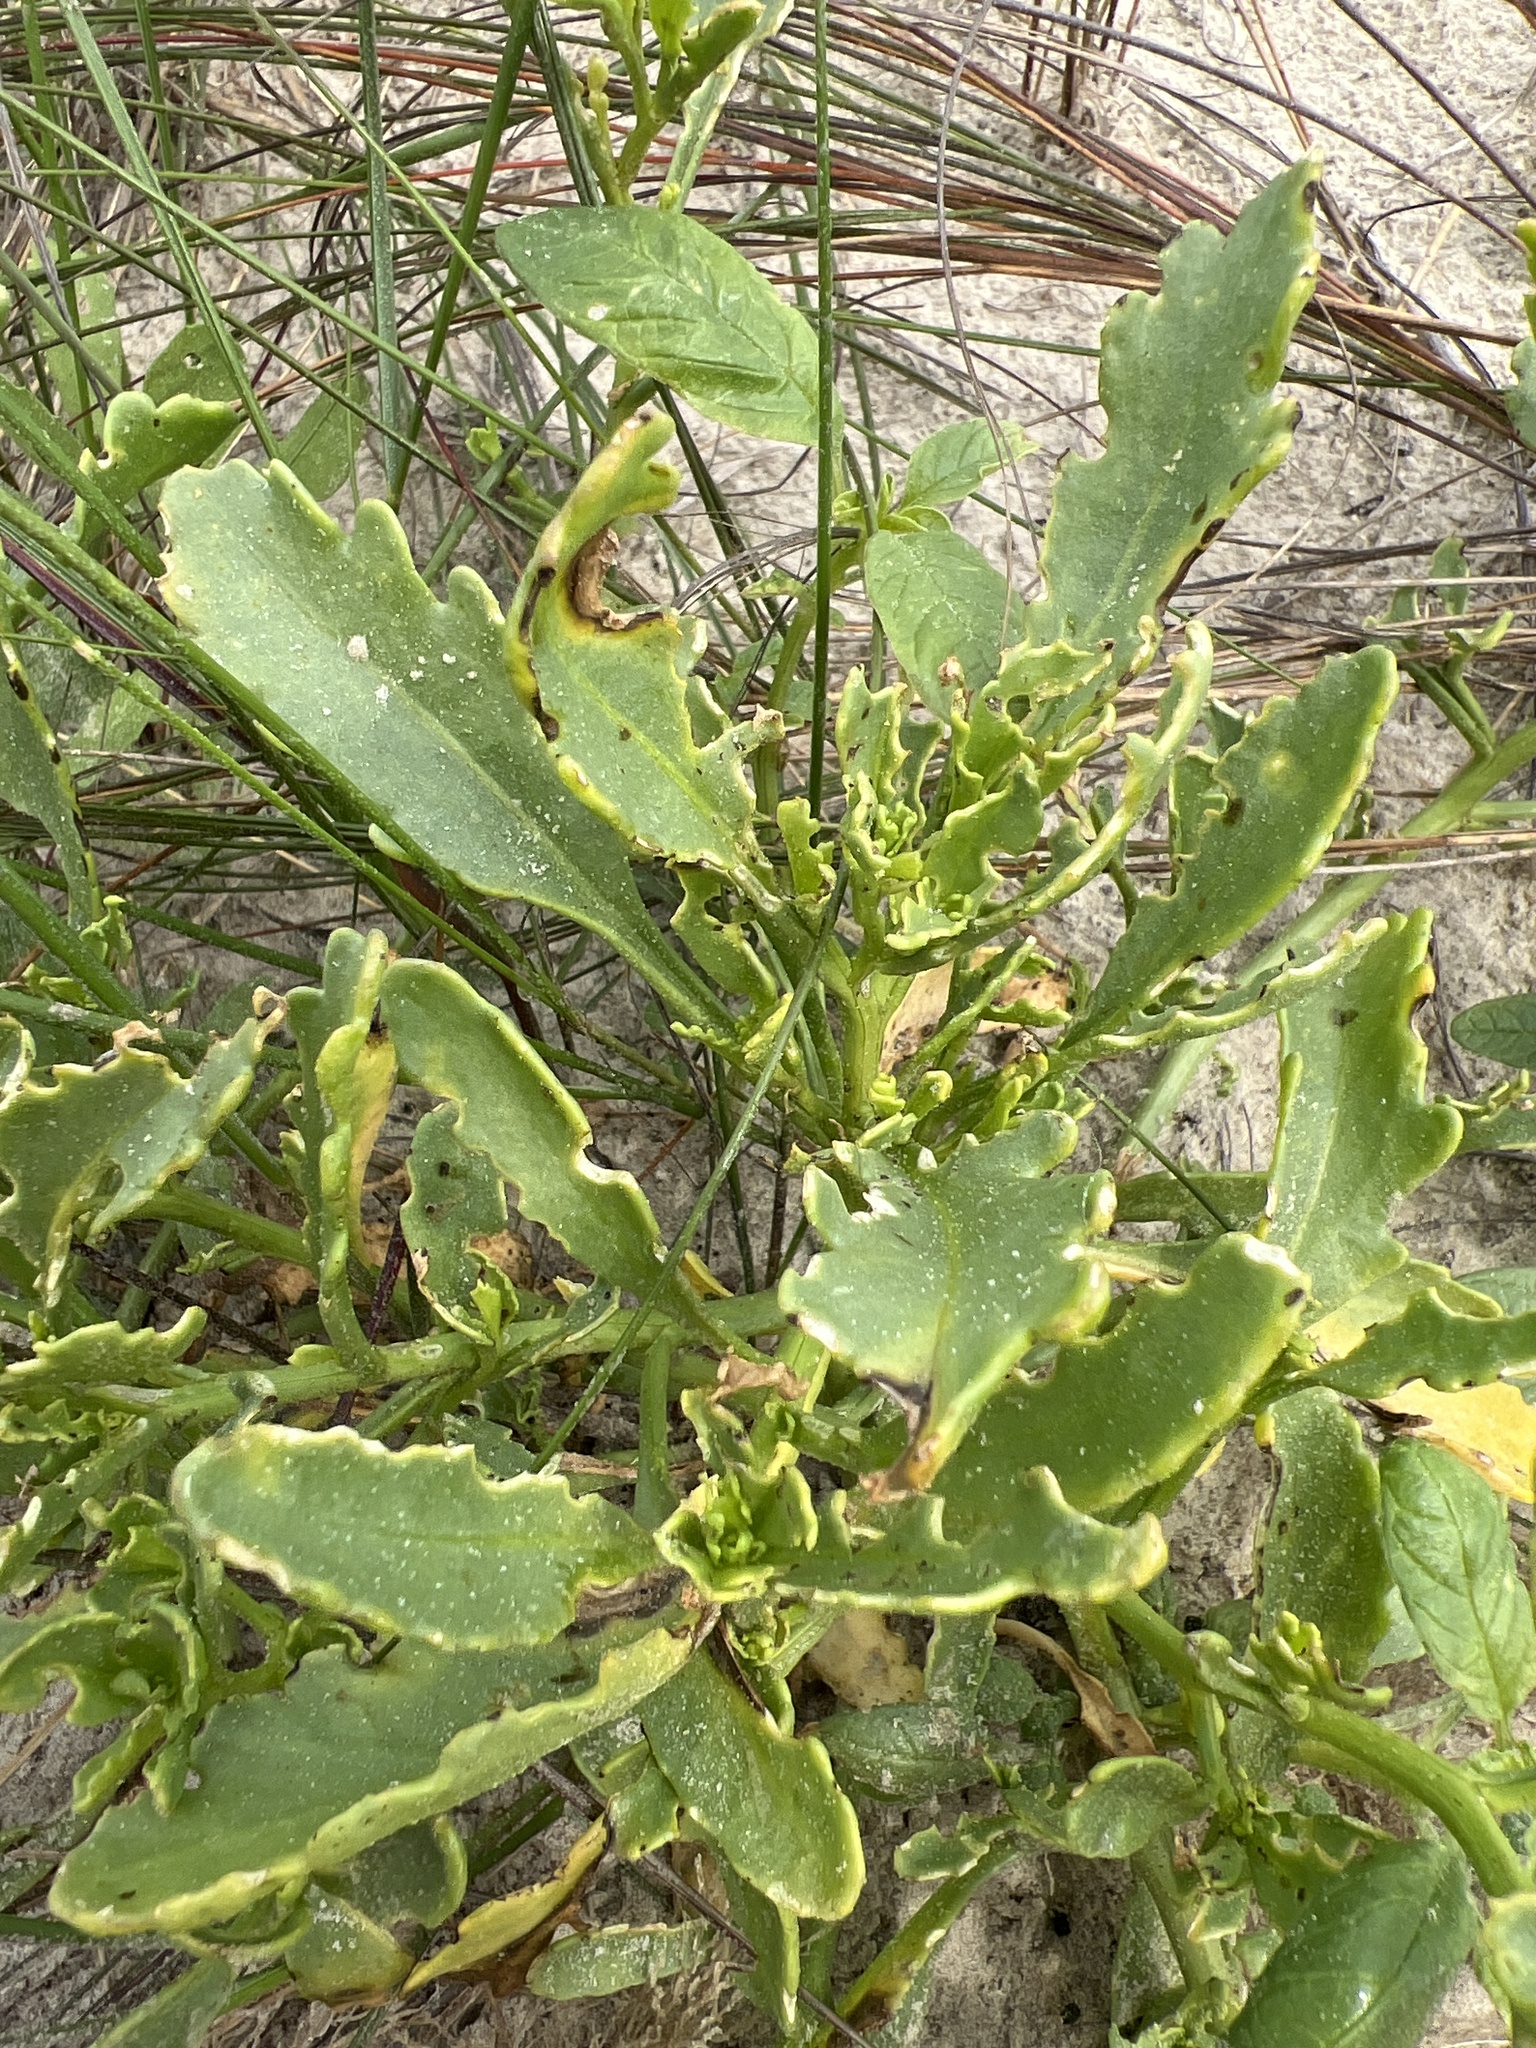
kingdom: Plantae
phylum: Tracheophyta
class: Magnoliopsida
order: Brassicales
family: Brassicaceae
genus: Cakile
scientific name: Cakile lanceolata
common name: Sea rocket
